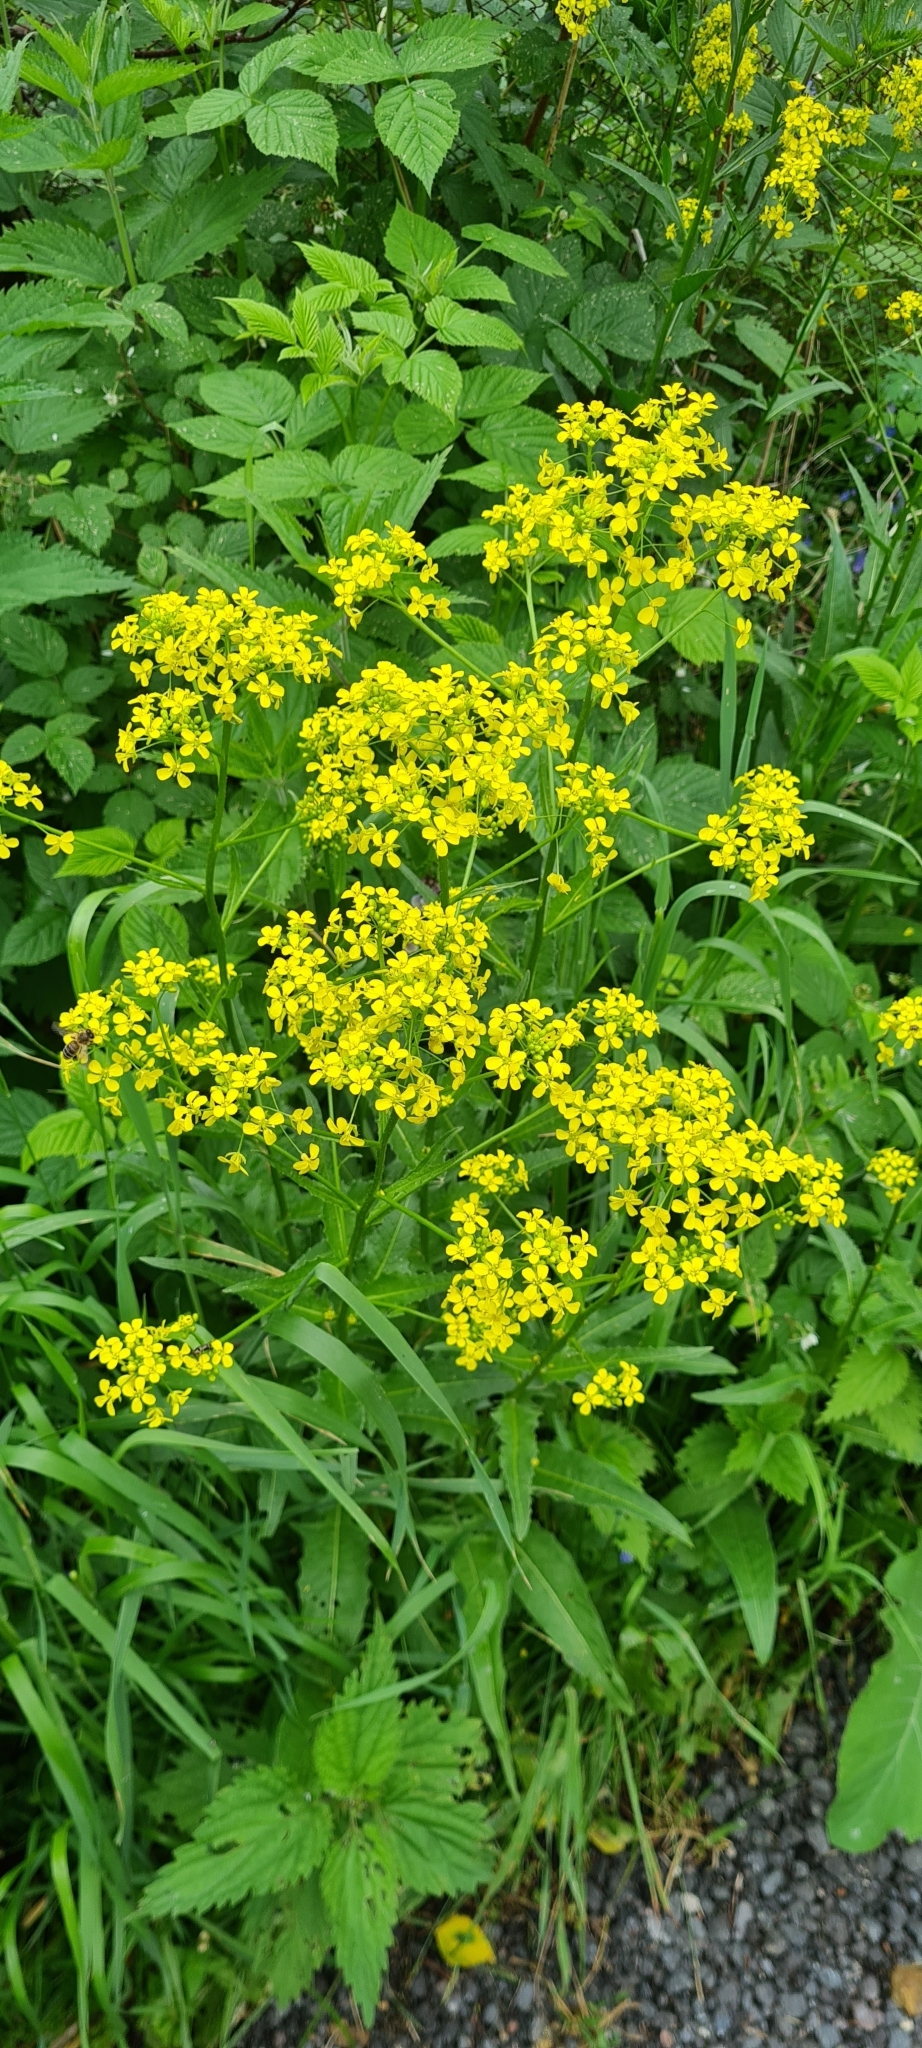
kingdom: Plantae
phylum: Tracheophyta
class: Magnoliopsida
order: Brassicales
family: Brassicaceae
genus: Bunias
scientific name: Bunias orientalis
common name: Warty-cabbage
